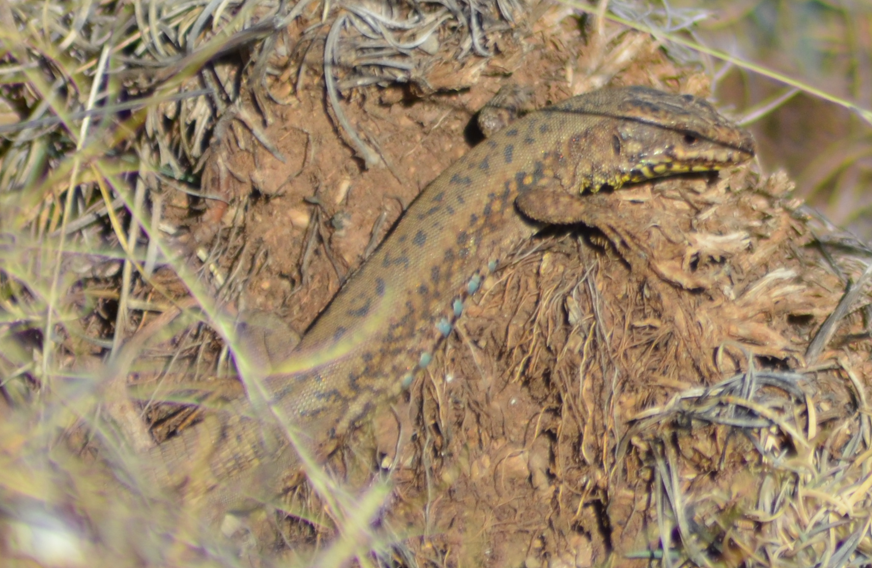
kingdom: Animalia
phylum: Chordata
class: Squamata
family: Lacertidae
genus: Podarcis
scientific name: Podarcis muralis
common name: Common wall lizard
